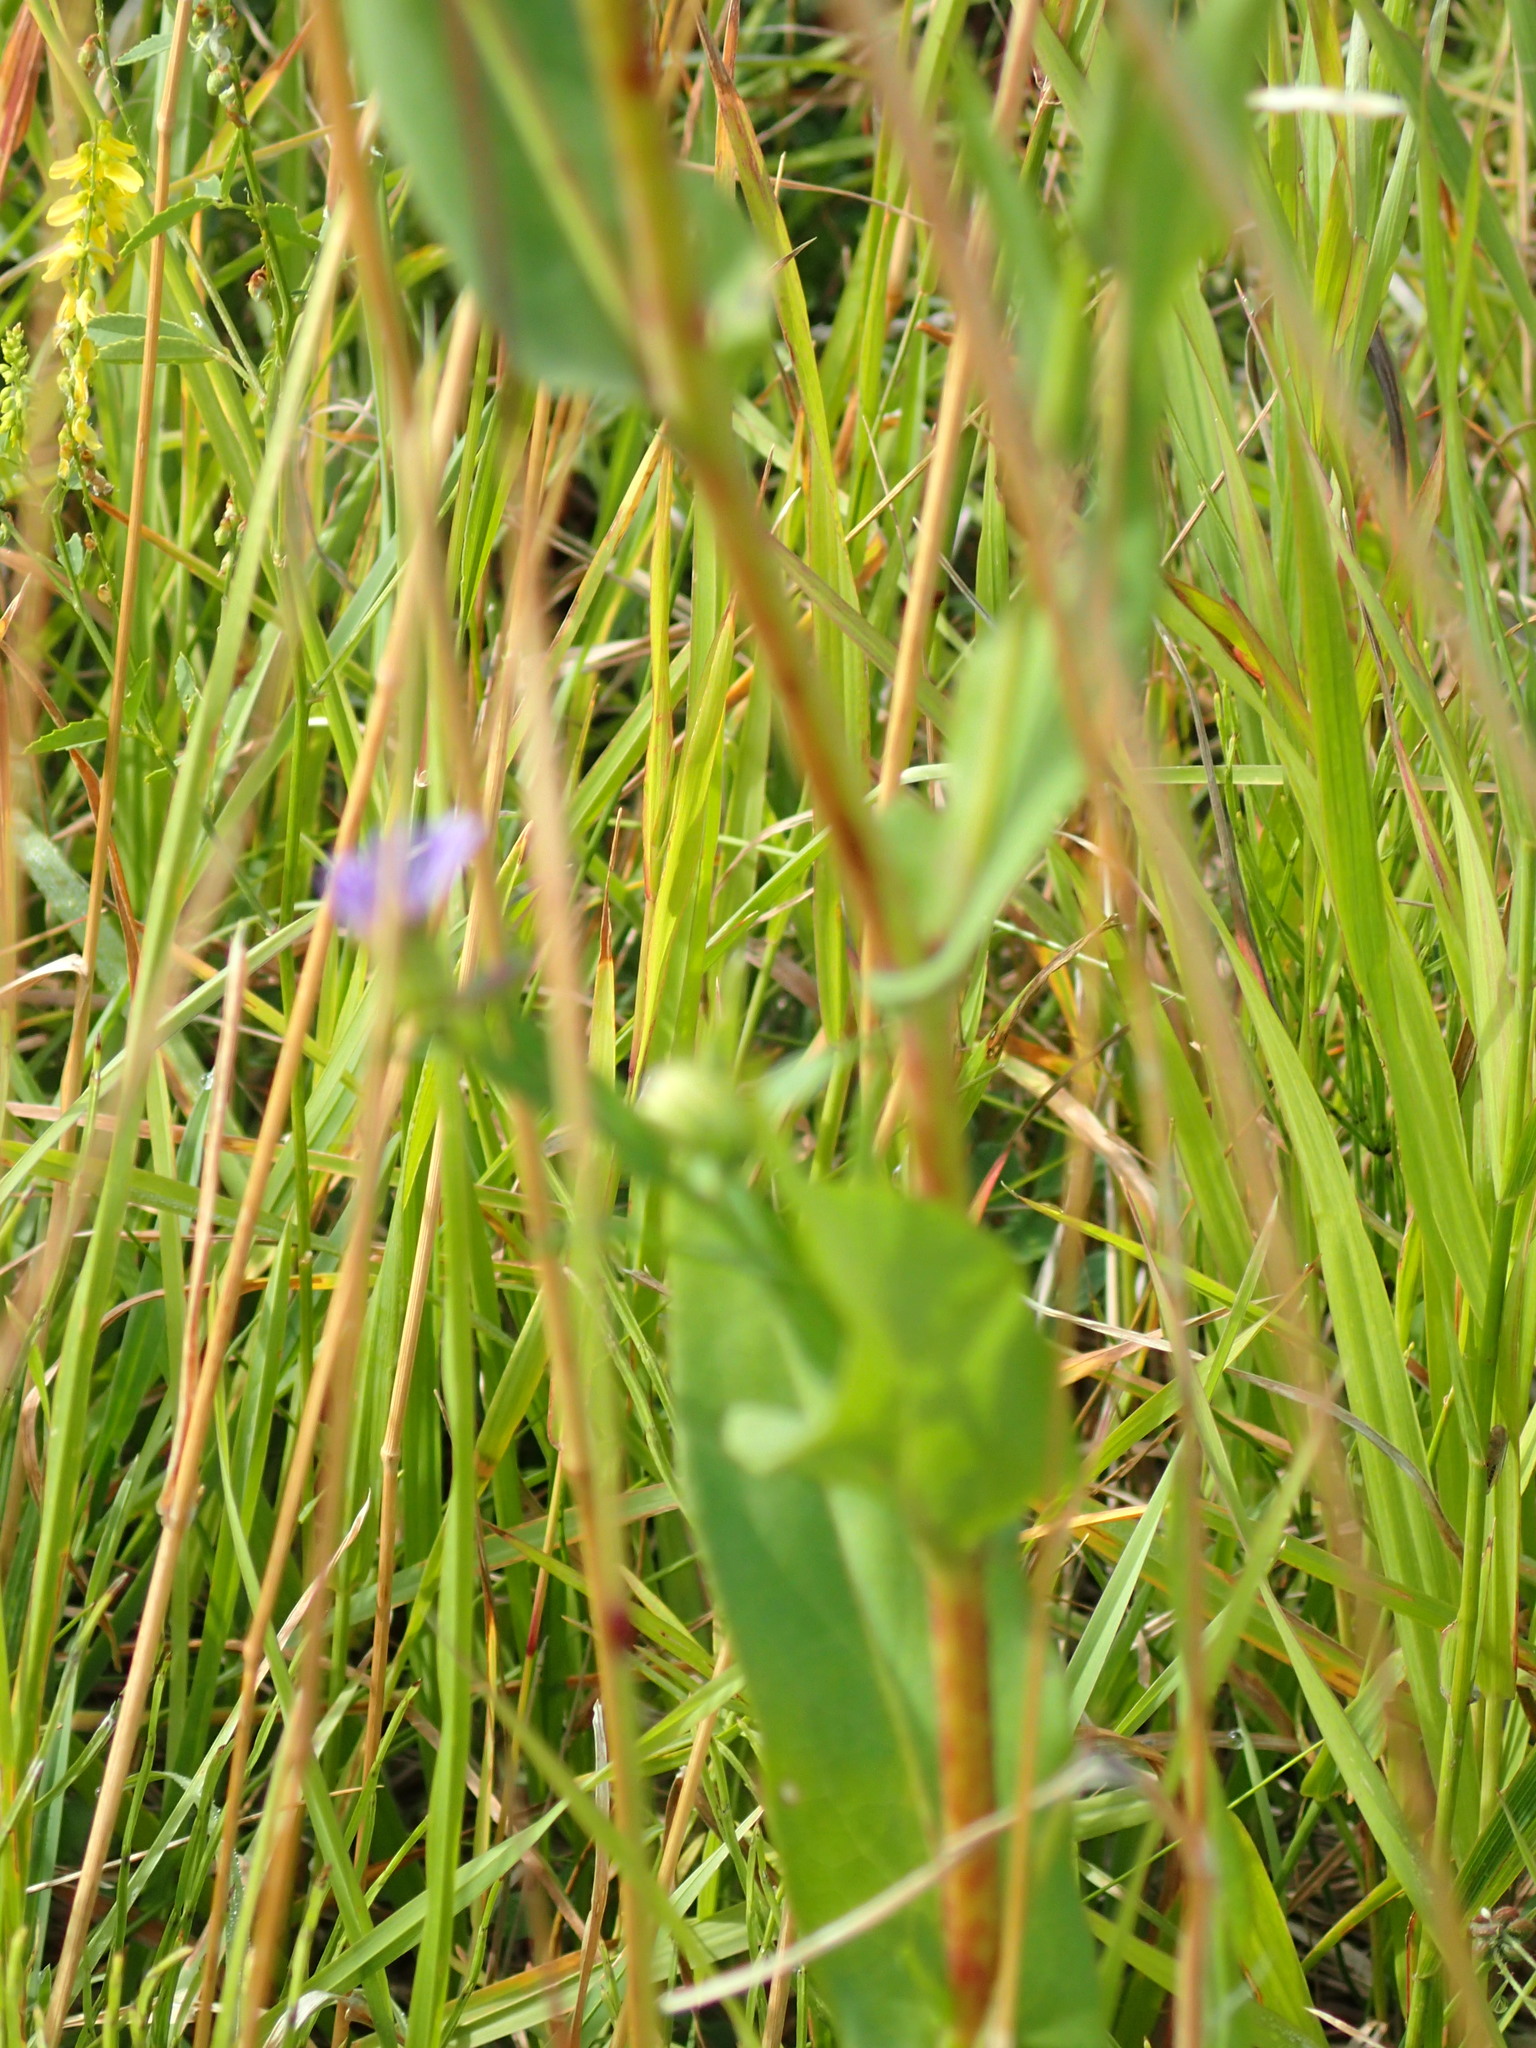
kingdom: Plantae
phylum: Tracheophyta
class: Magnoliopsida
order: Asterales
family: Asteraceae
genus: Symphyotrichum
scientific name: Symphyotrichum laeve
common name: Glaucous aster
